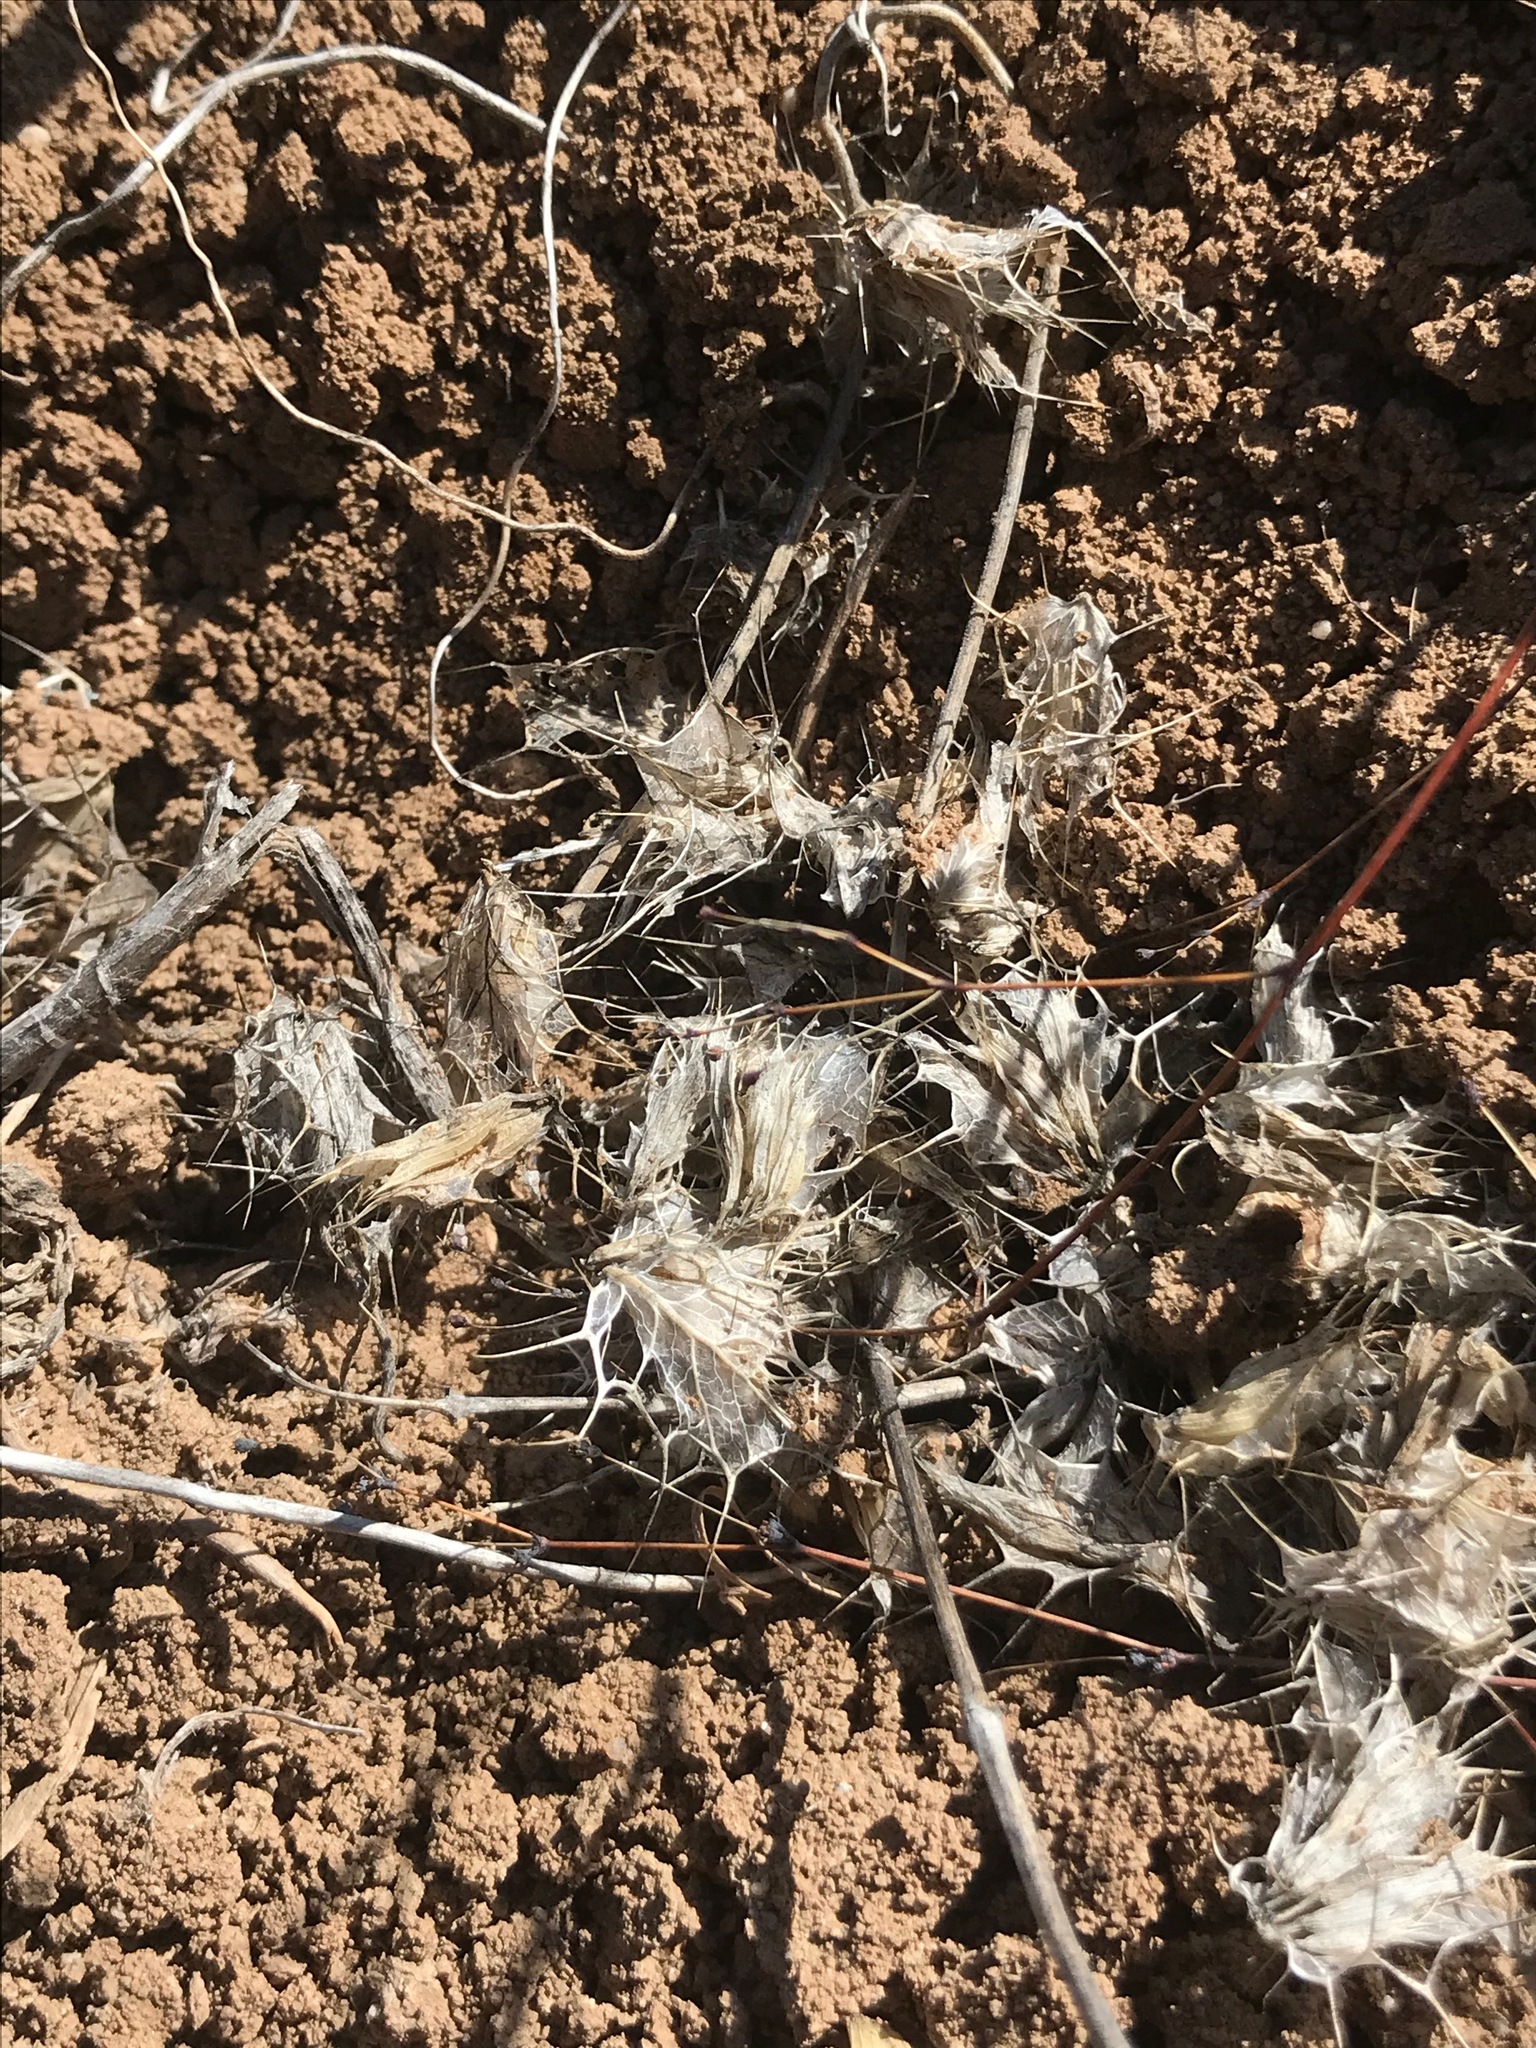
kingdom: Plantae
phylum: Tracheophyta
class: Magnoliopsida
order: Lamiales
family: Lamiaceae
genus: Acanthomintha
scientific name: Acanthomintha obovata
